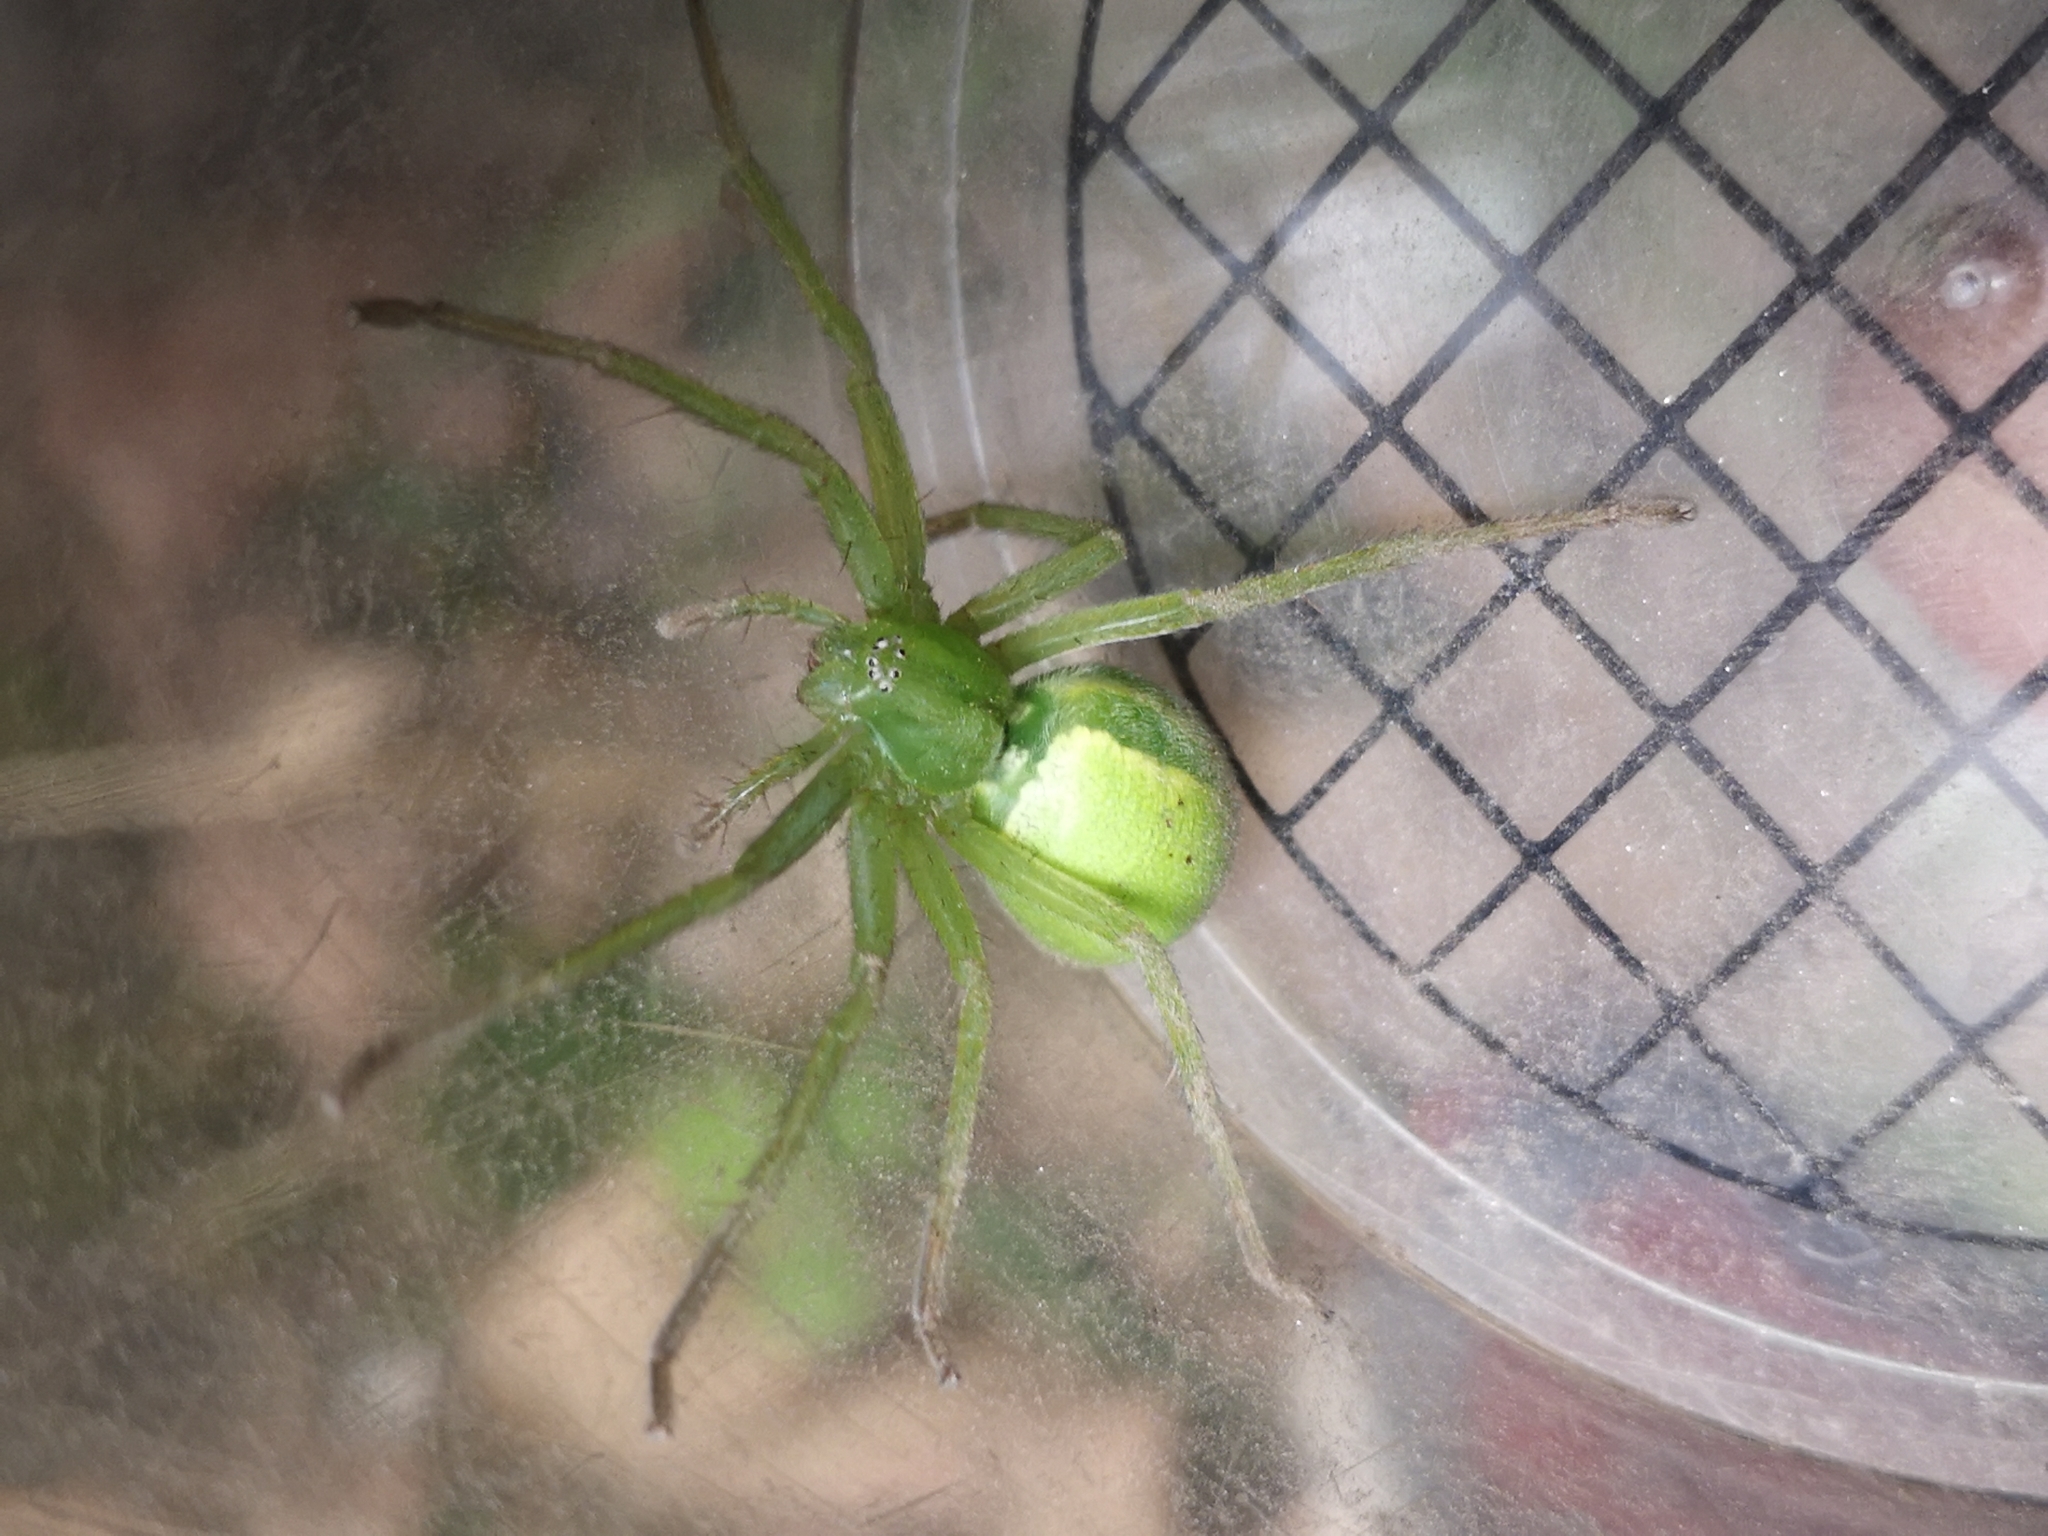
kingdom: Animalia
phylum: Arthropoda
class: Arachnida
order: Araneae
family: Sparassidae
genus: Micrommata
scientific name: Micrommata virescens
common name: Green spider
